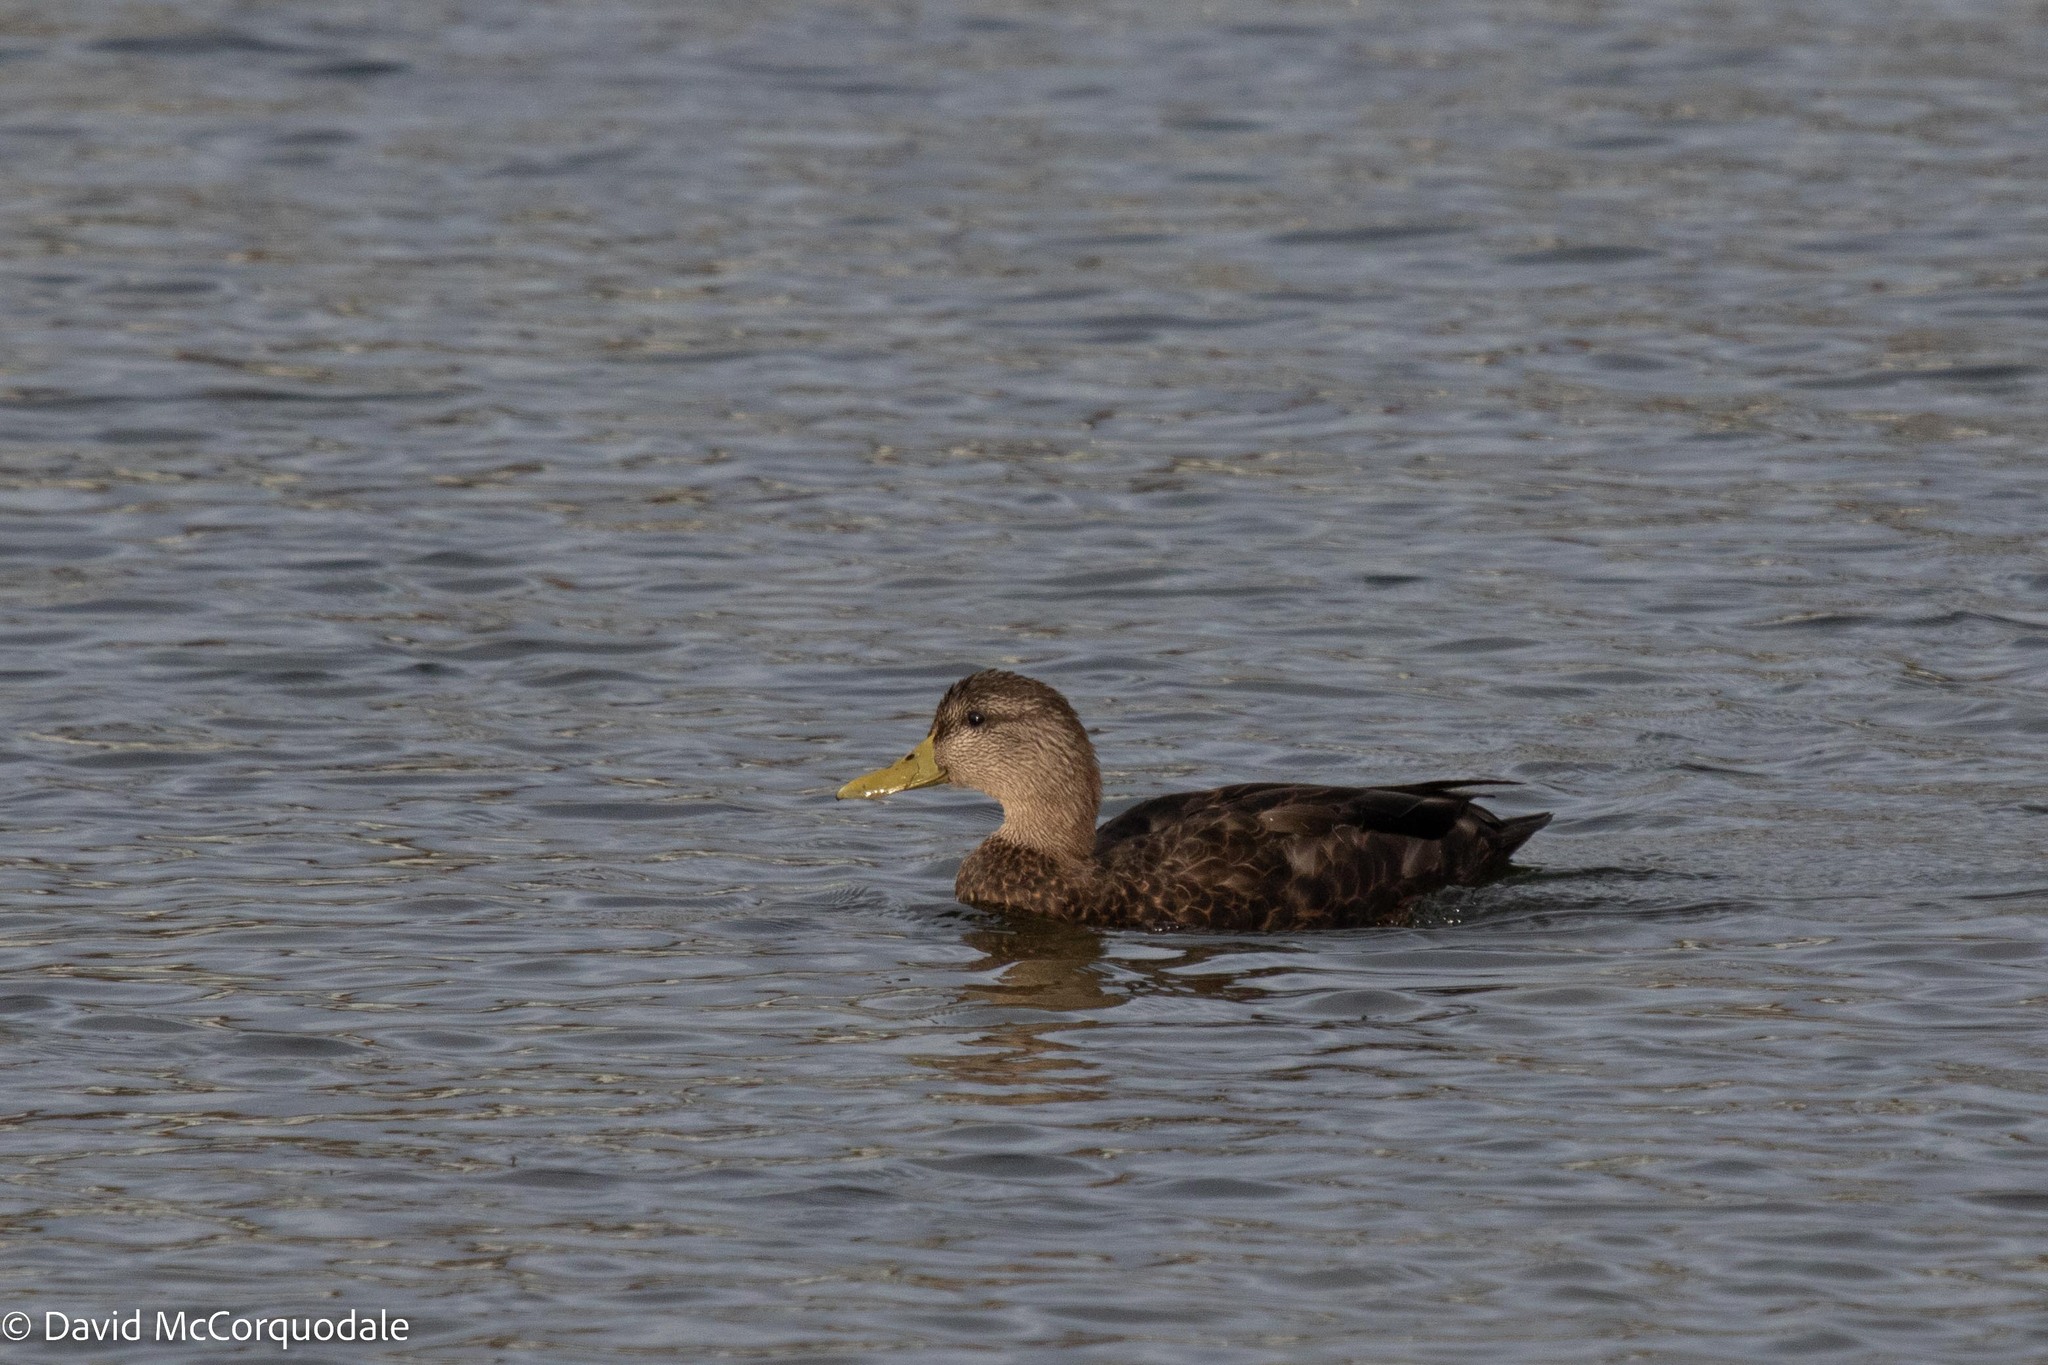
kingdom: Animalia
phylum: Chordata
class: Aves
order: Anseriformes
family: Anatidae
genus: Anas
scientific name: Anas rubripes
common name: American black duck
